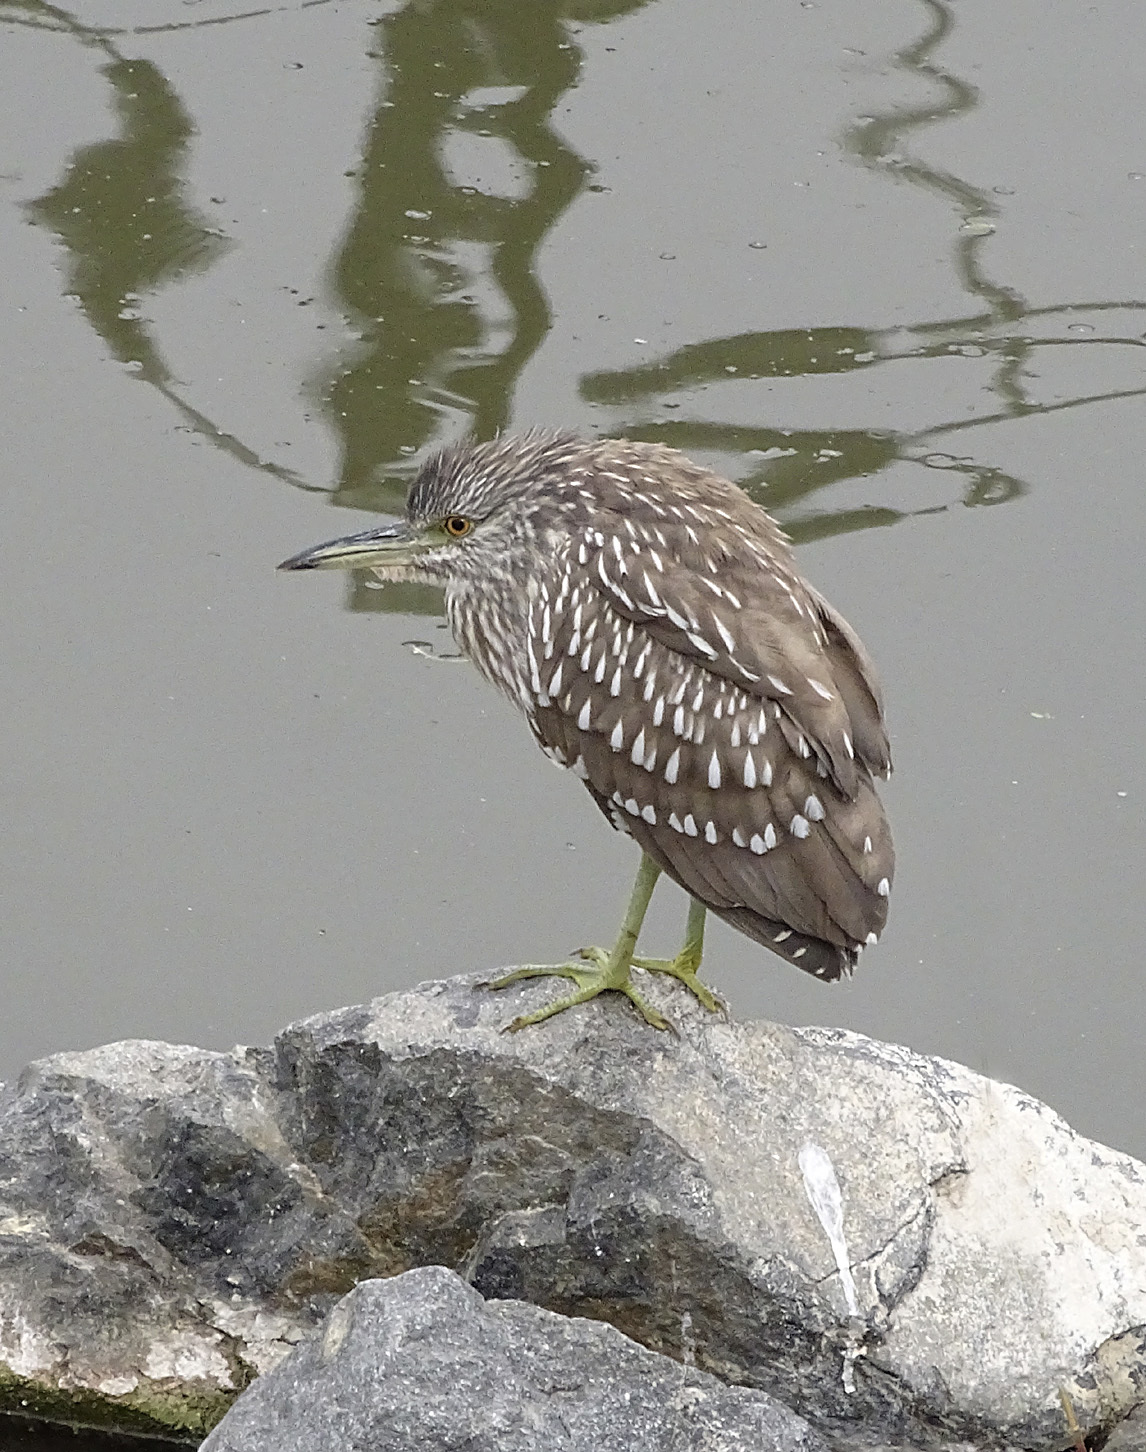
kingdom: Animalia
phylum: Chordata
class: Aves
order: Pelecaniformes
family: Ardeidae
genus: Nycticorax
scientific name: Nycticorax nycticorax
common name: Black-crowned night heron
